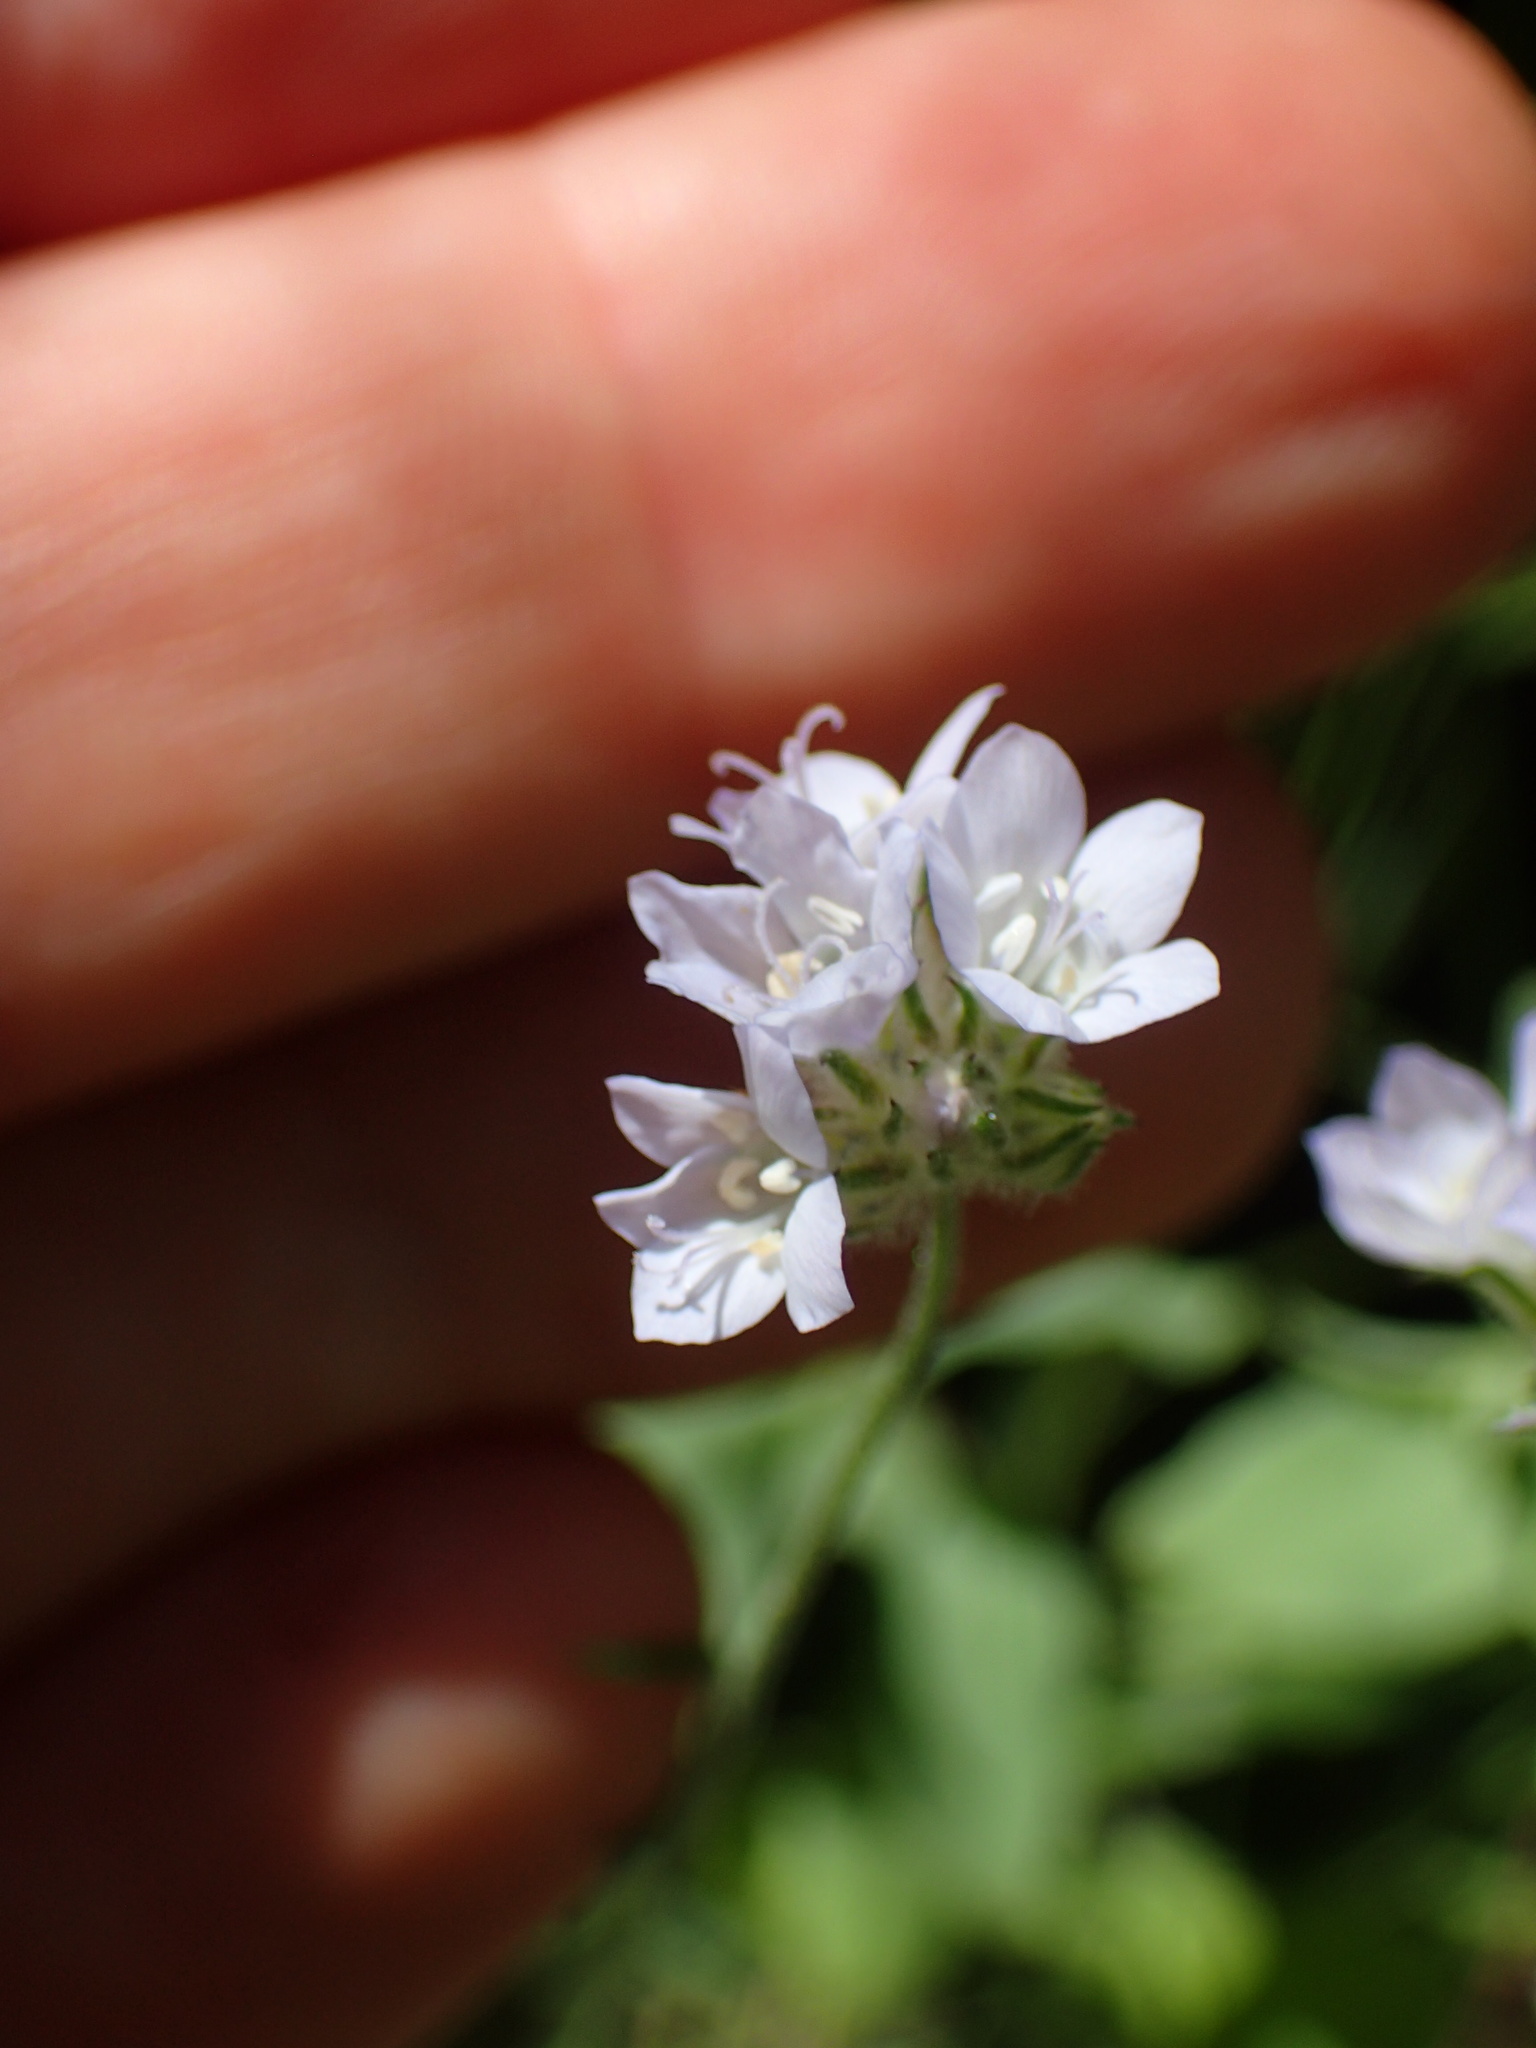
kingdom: Plantae
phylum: Tracheophyta
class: Magnoliopsida
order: Ericales
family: Polemoniaceae
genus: Gilia
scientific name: Gilia capitata
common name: Bluehead gilia
